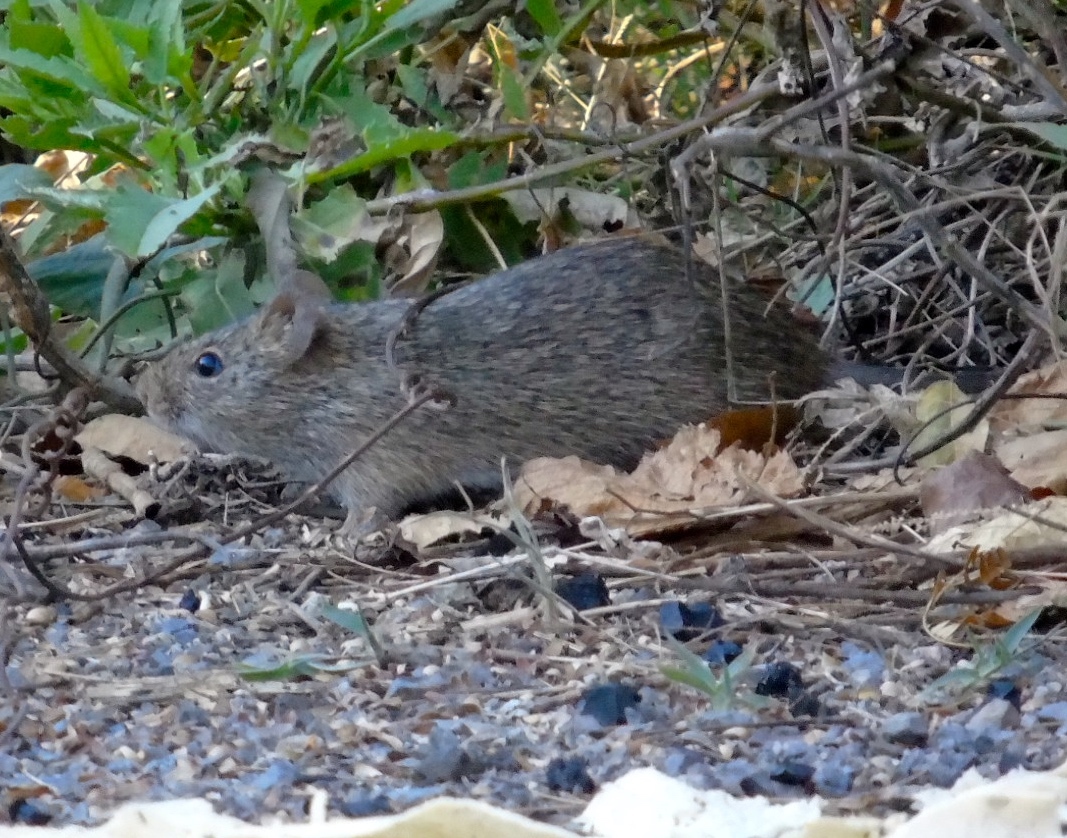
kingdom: Animalia
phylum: Chordata
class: Mammalia
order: Rodentia
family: Cricetidae
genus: Sigmodon
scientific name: Sigmodon arizonae
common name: Arizona cotton rat
